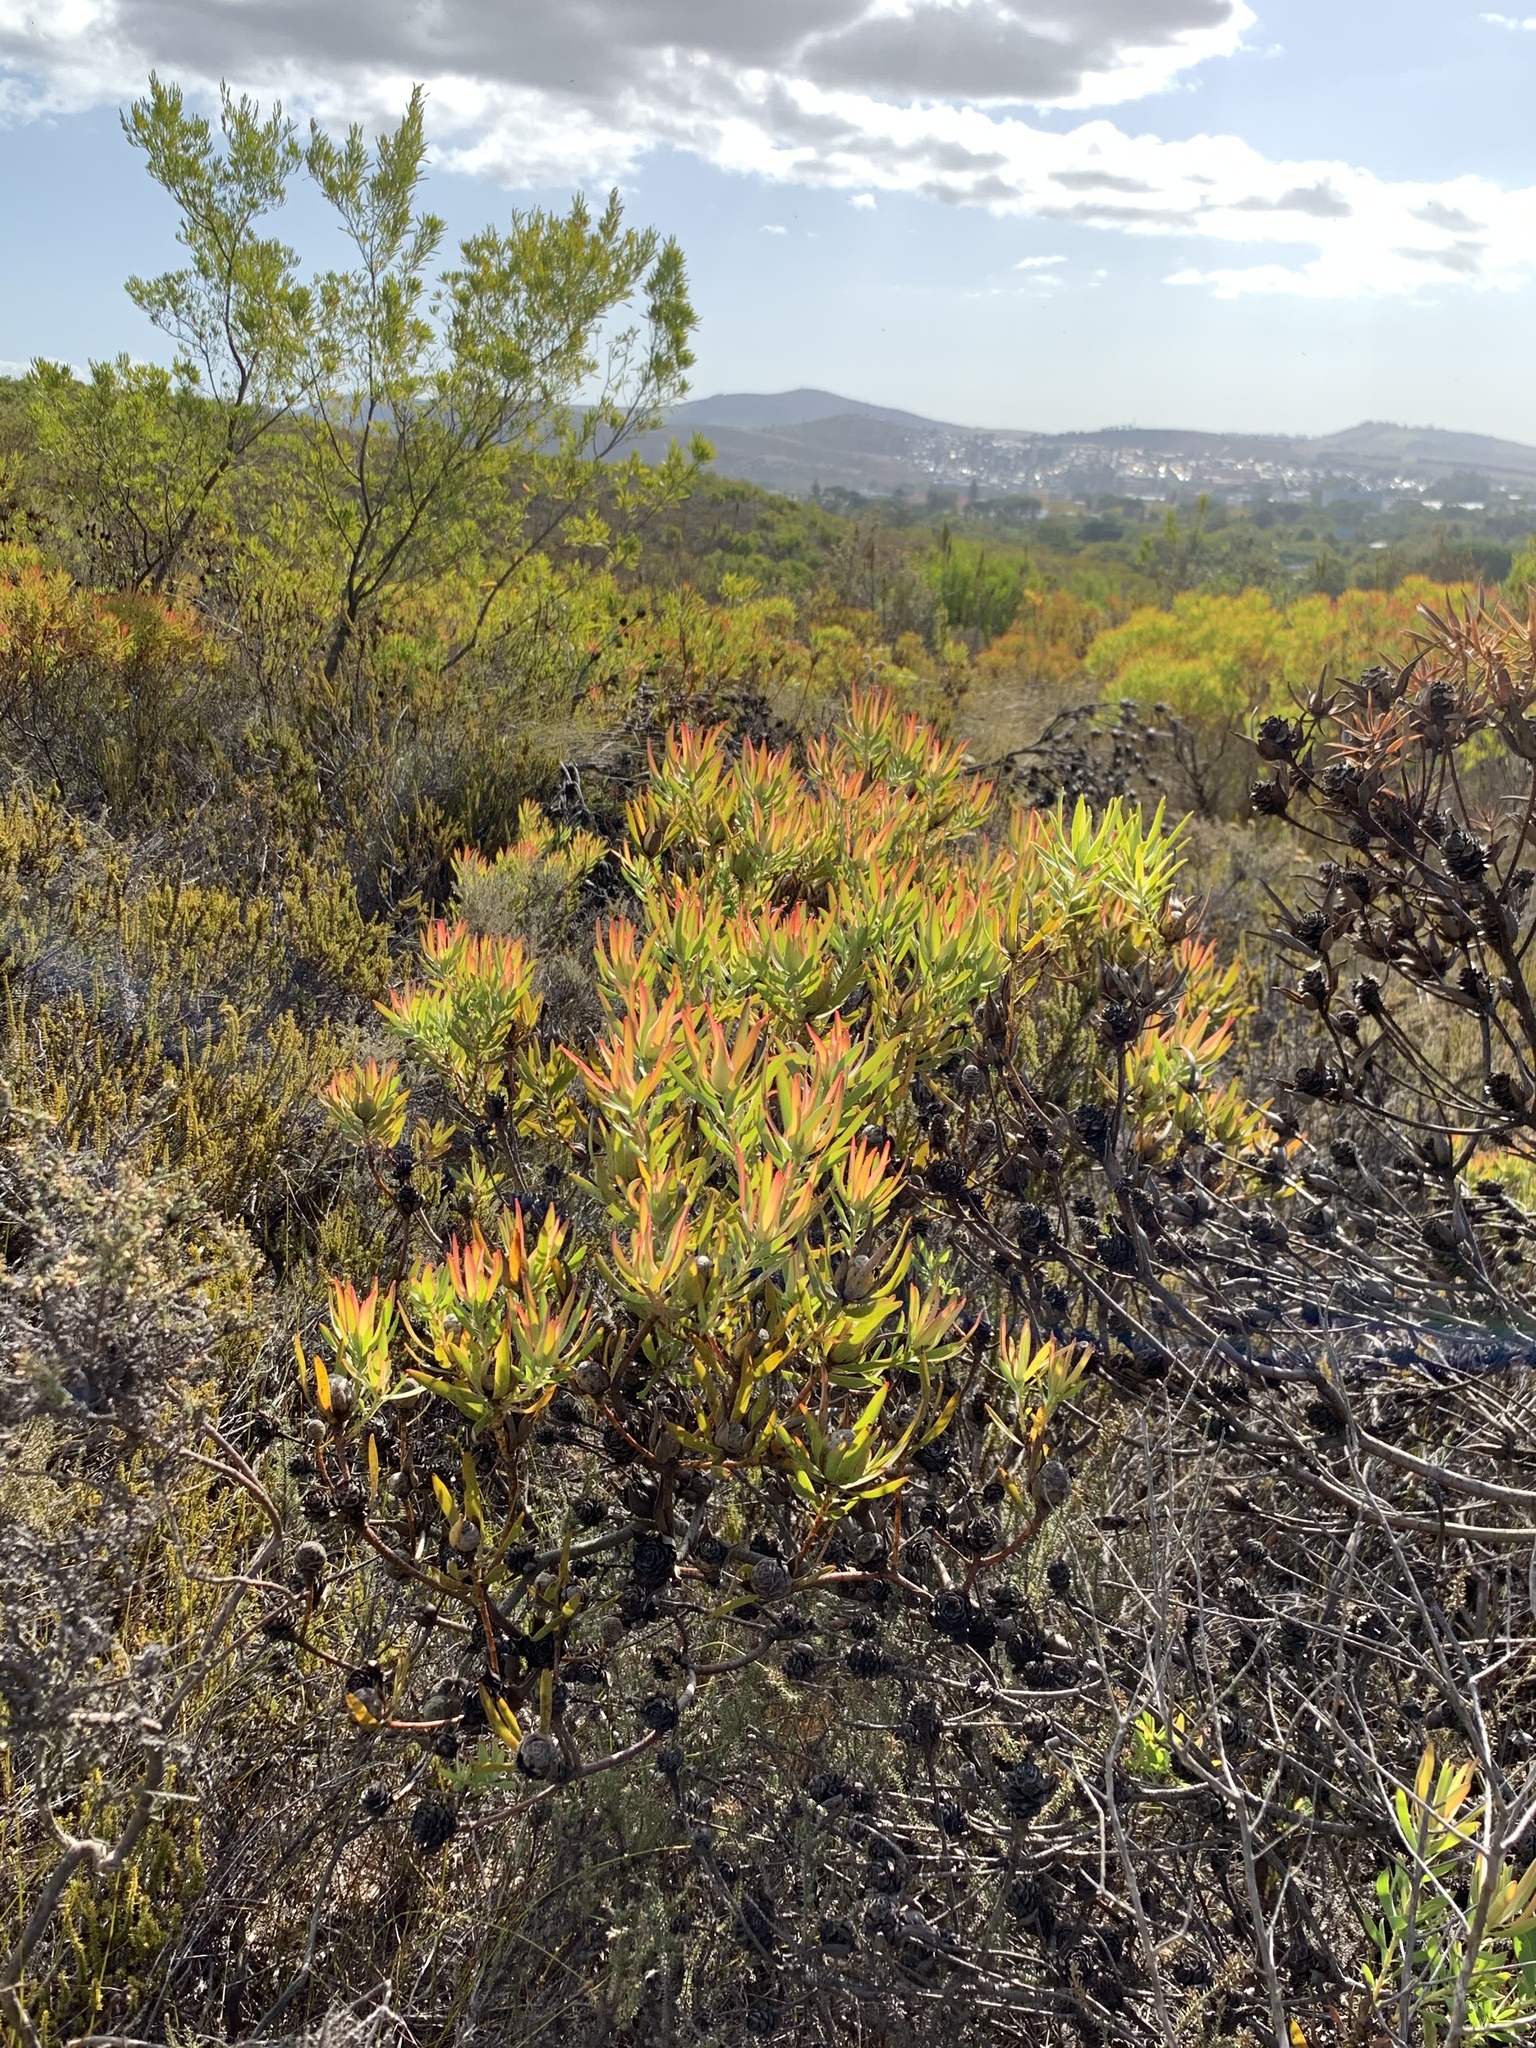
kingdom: Plantae
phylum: Tracheophyta
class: Magnoliopsida
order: Proteales
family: Proteaceae
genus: Leucadendron
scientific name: Leucadendron salignum
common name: Common sunshine conebush
